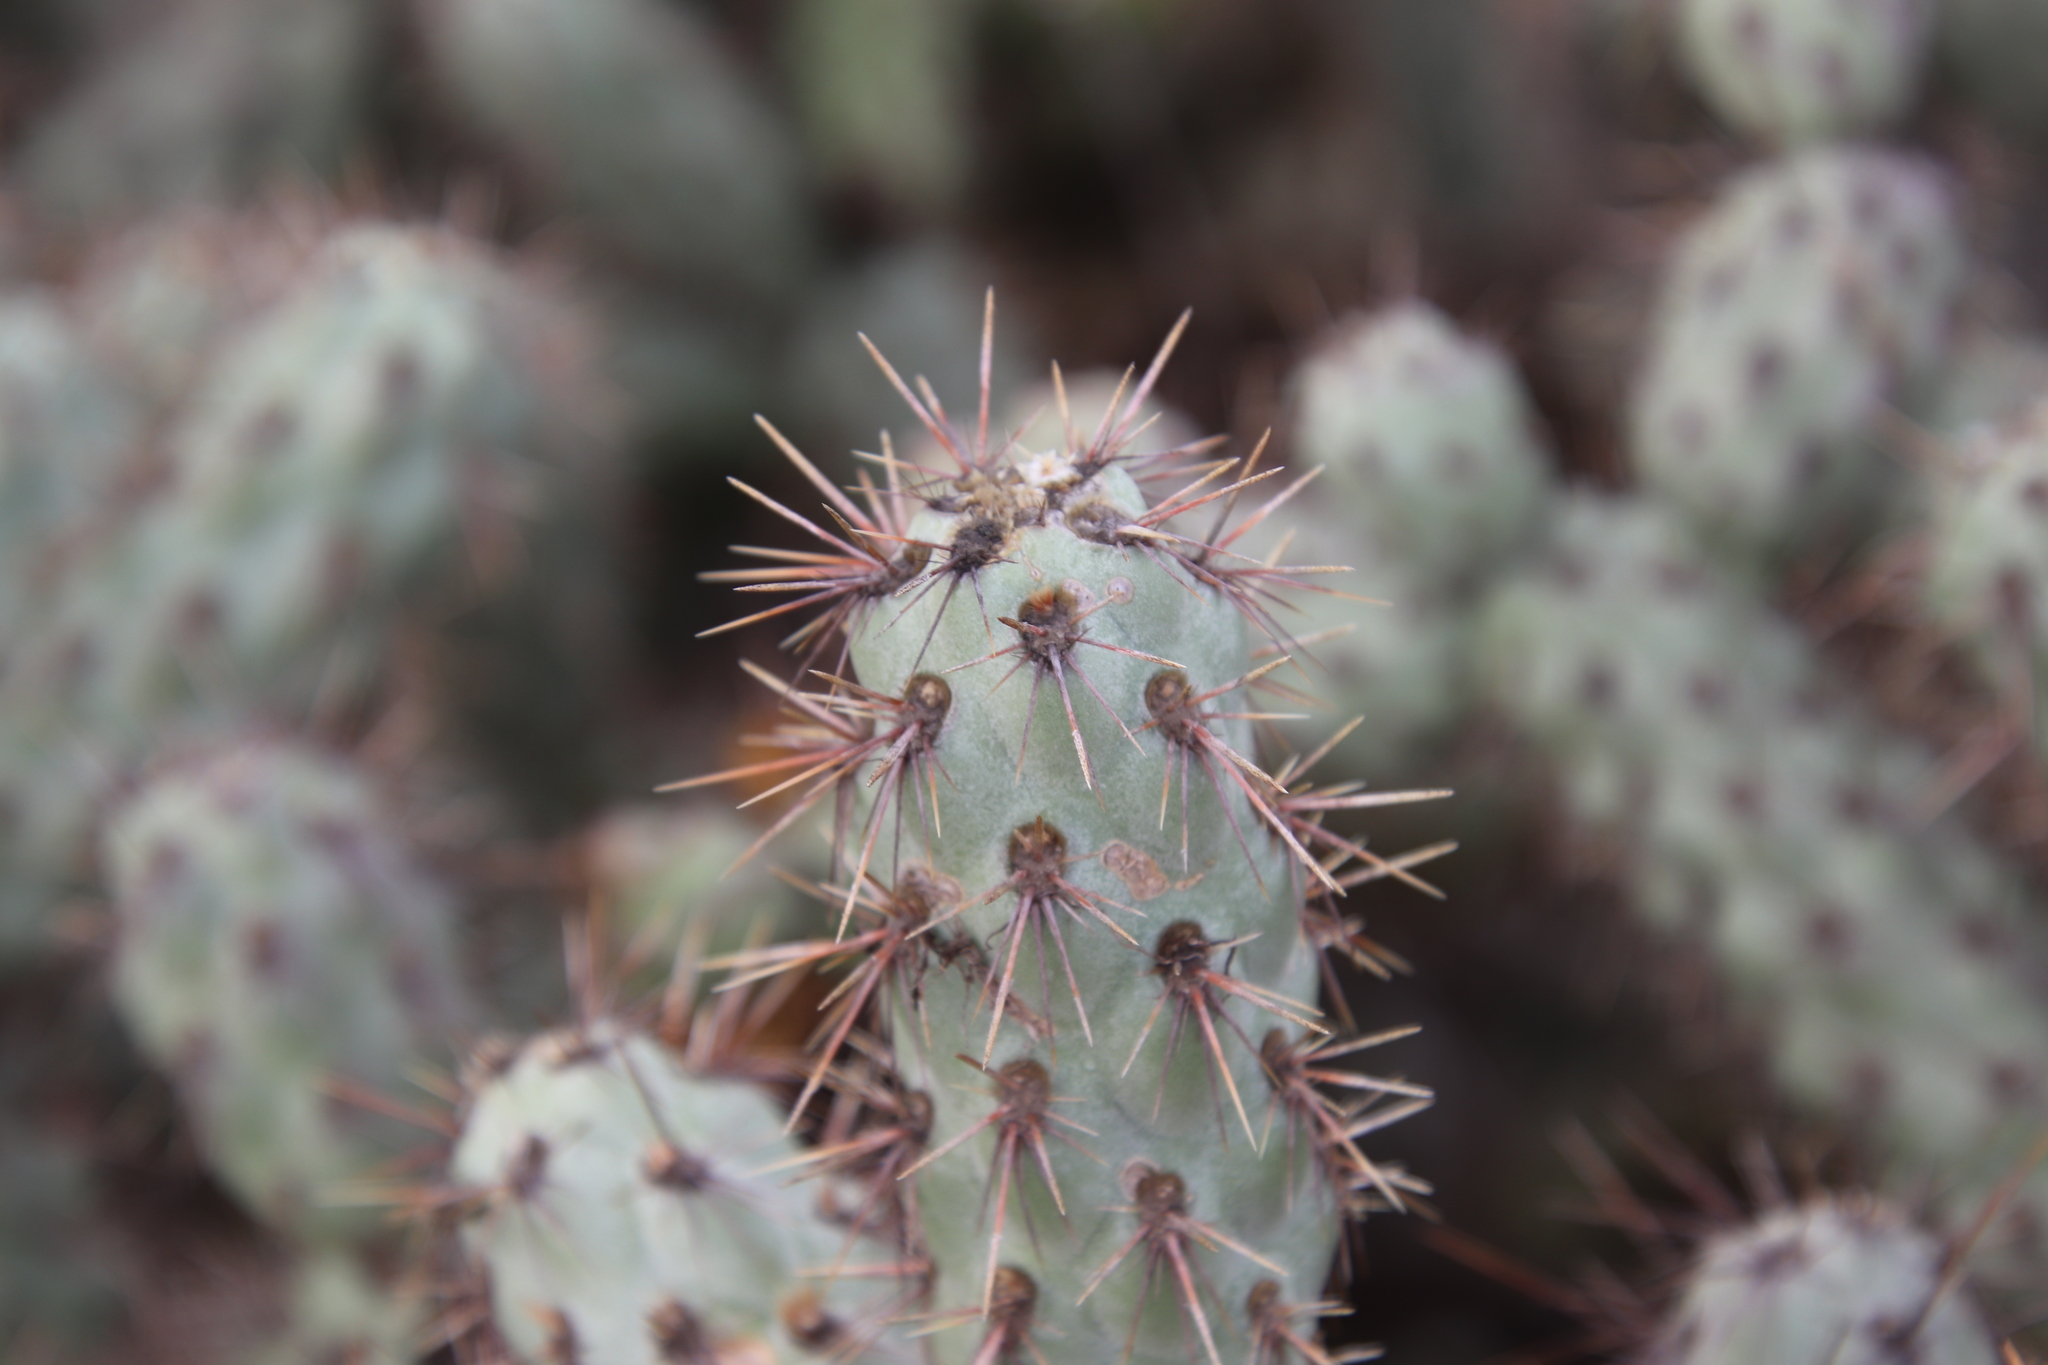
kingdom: Plantae
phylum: Tracheophyta
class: Magnoliopsida
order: Caryophyllales
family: Cactaceae
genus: Cylindropuntia
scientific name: Cylindropuntia prolifera
